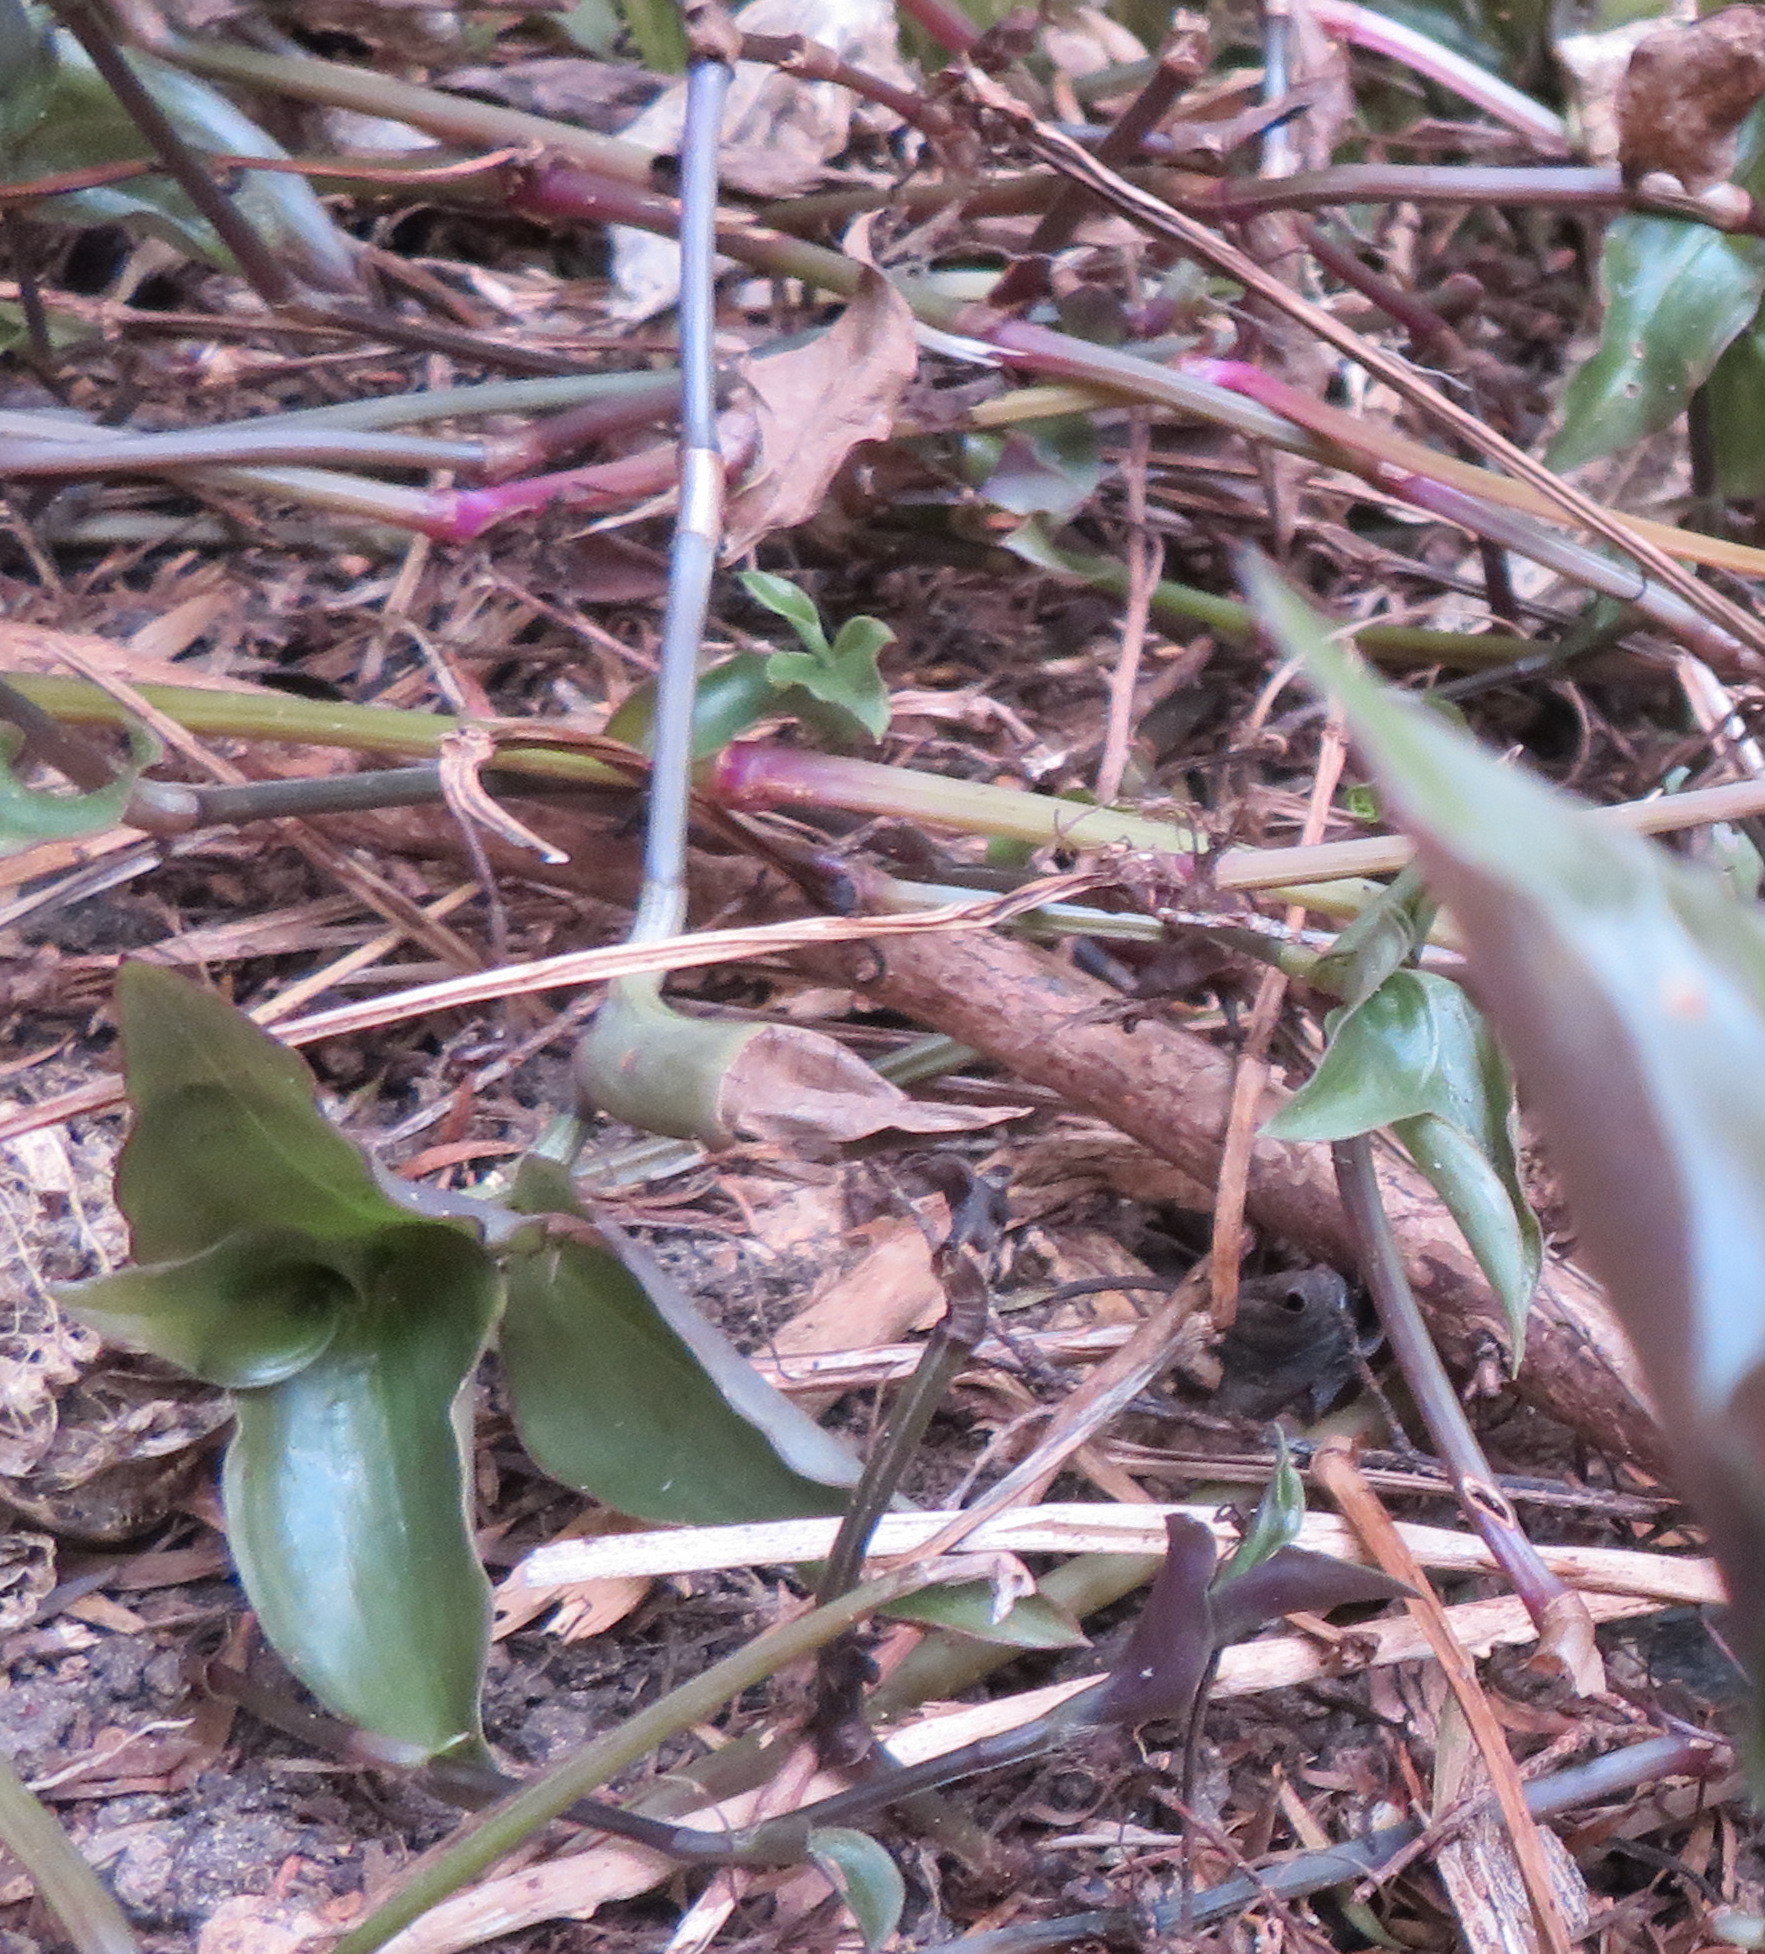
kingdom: Plantae
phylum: Tracheophyta
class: Liliopsida
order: Commelinales
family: Commelinaceae
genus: Tradescantia
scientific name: Tradescantia fluminensis
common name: Wandering-jew
